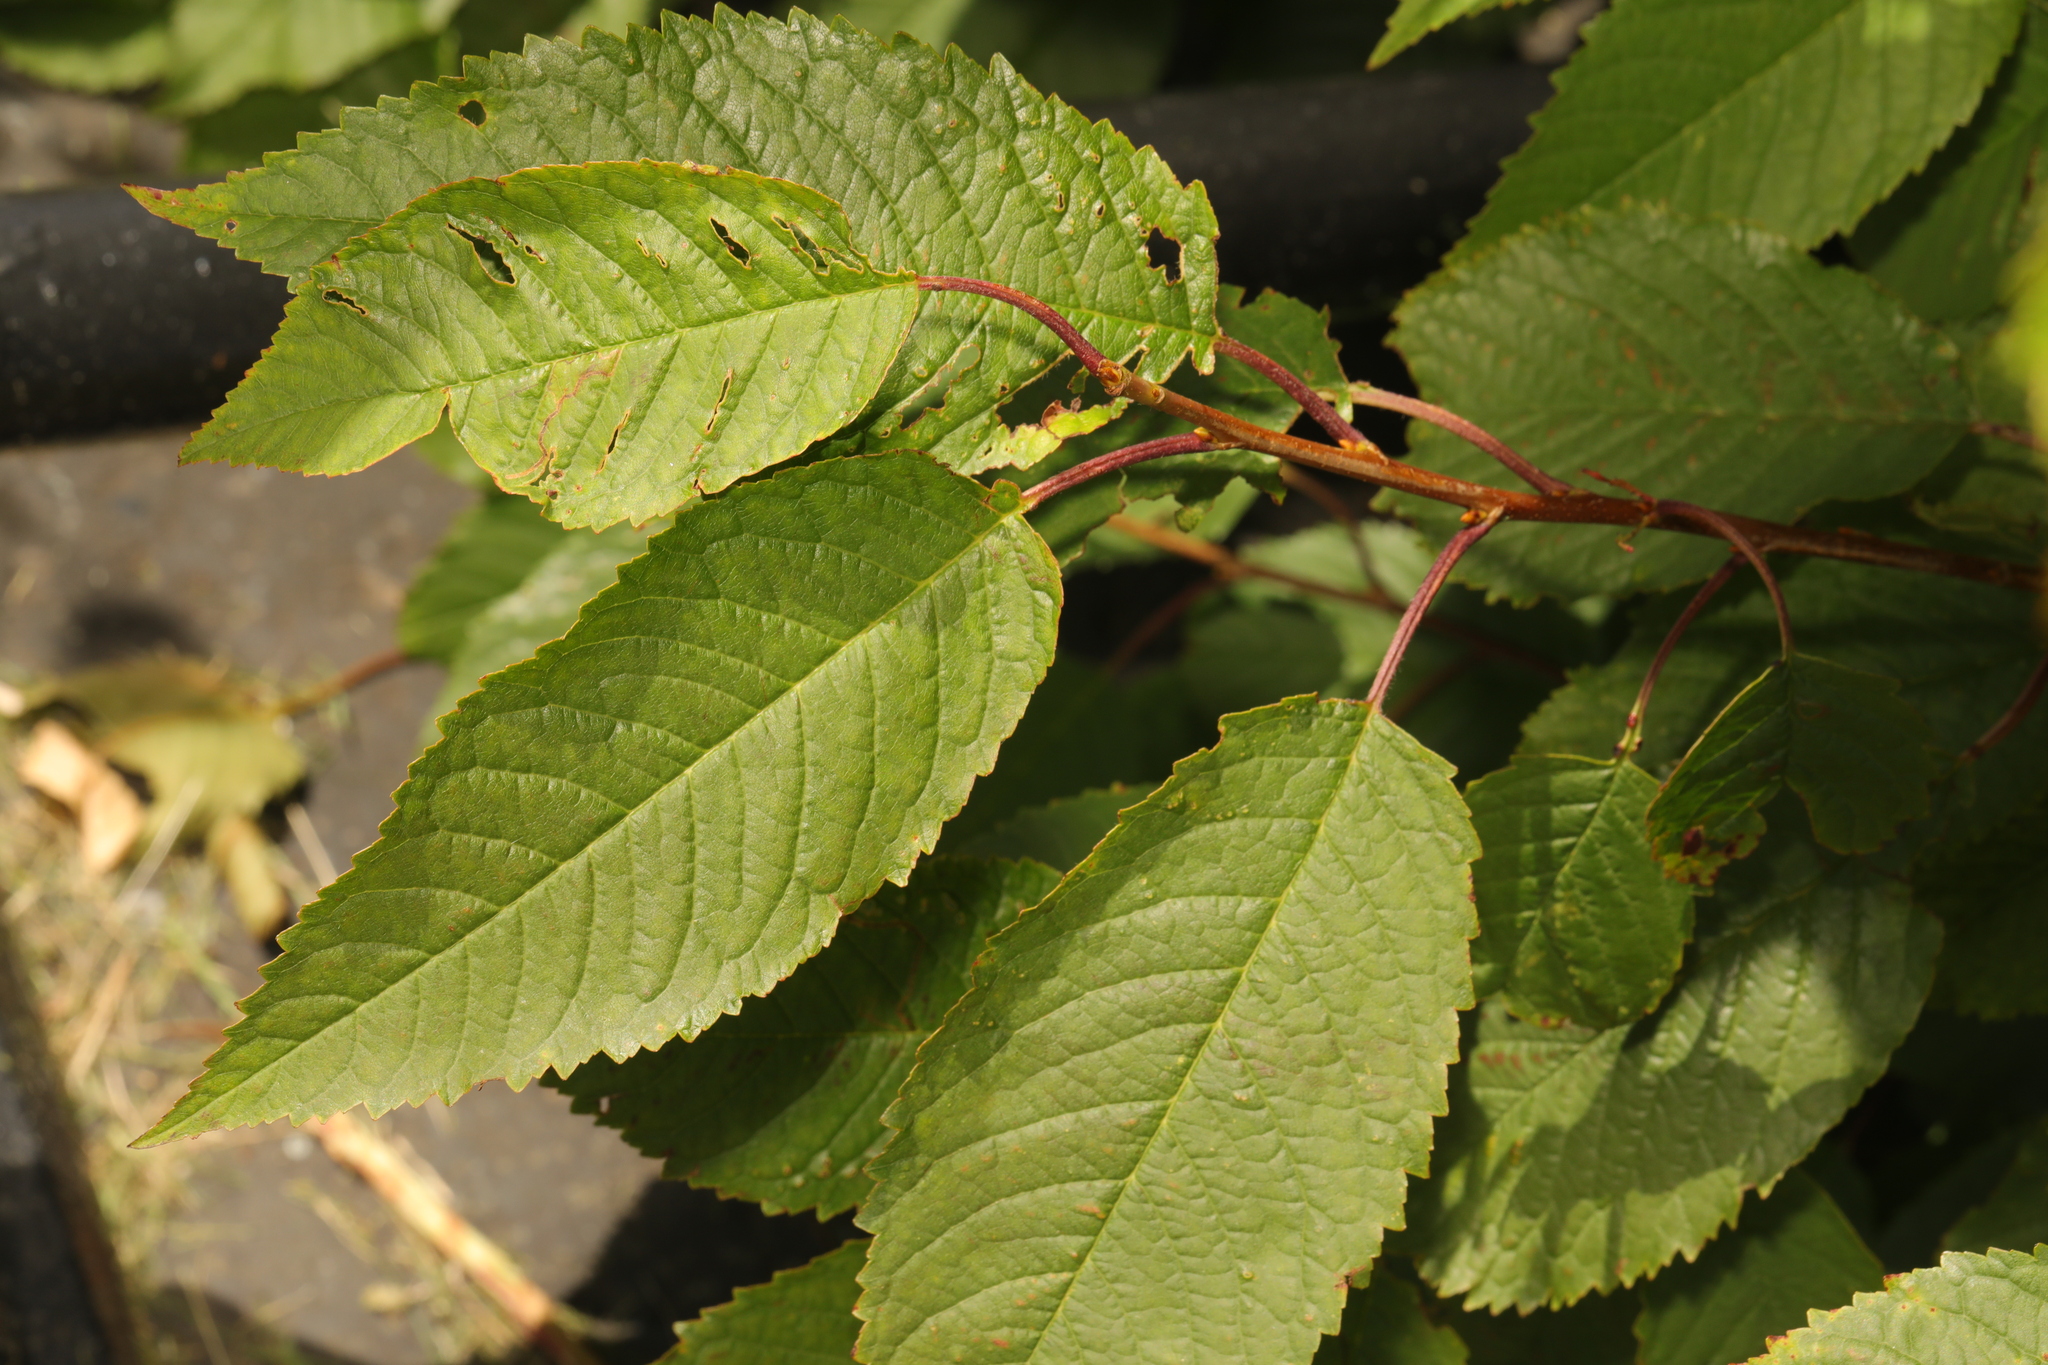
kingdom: Plantae
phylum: Tracheophyta
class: Magnoliopsida
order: Rosales
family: Rosaceae
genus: Prunus
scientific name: Prunus avium
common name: Sweet cherry
